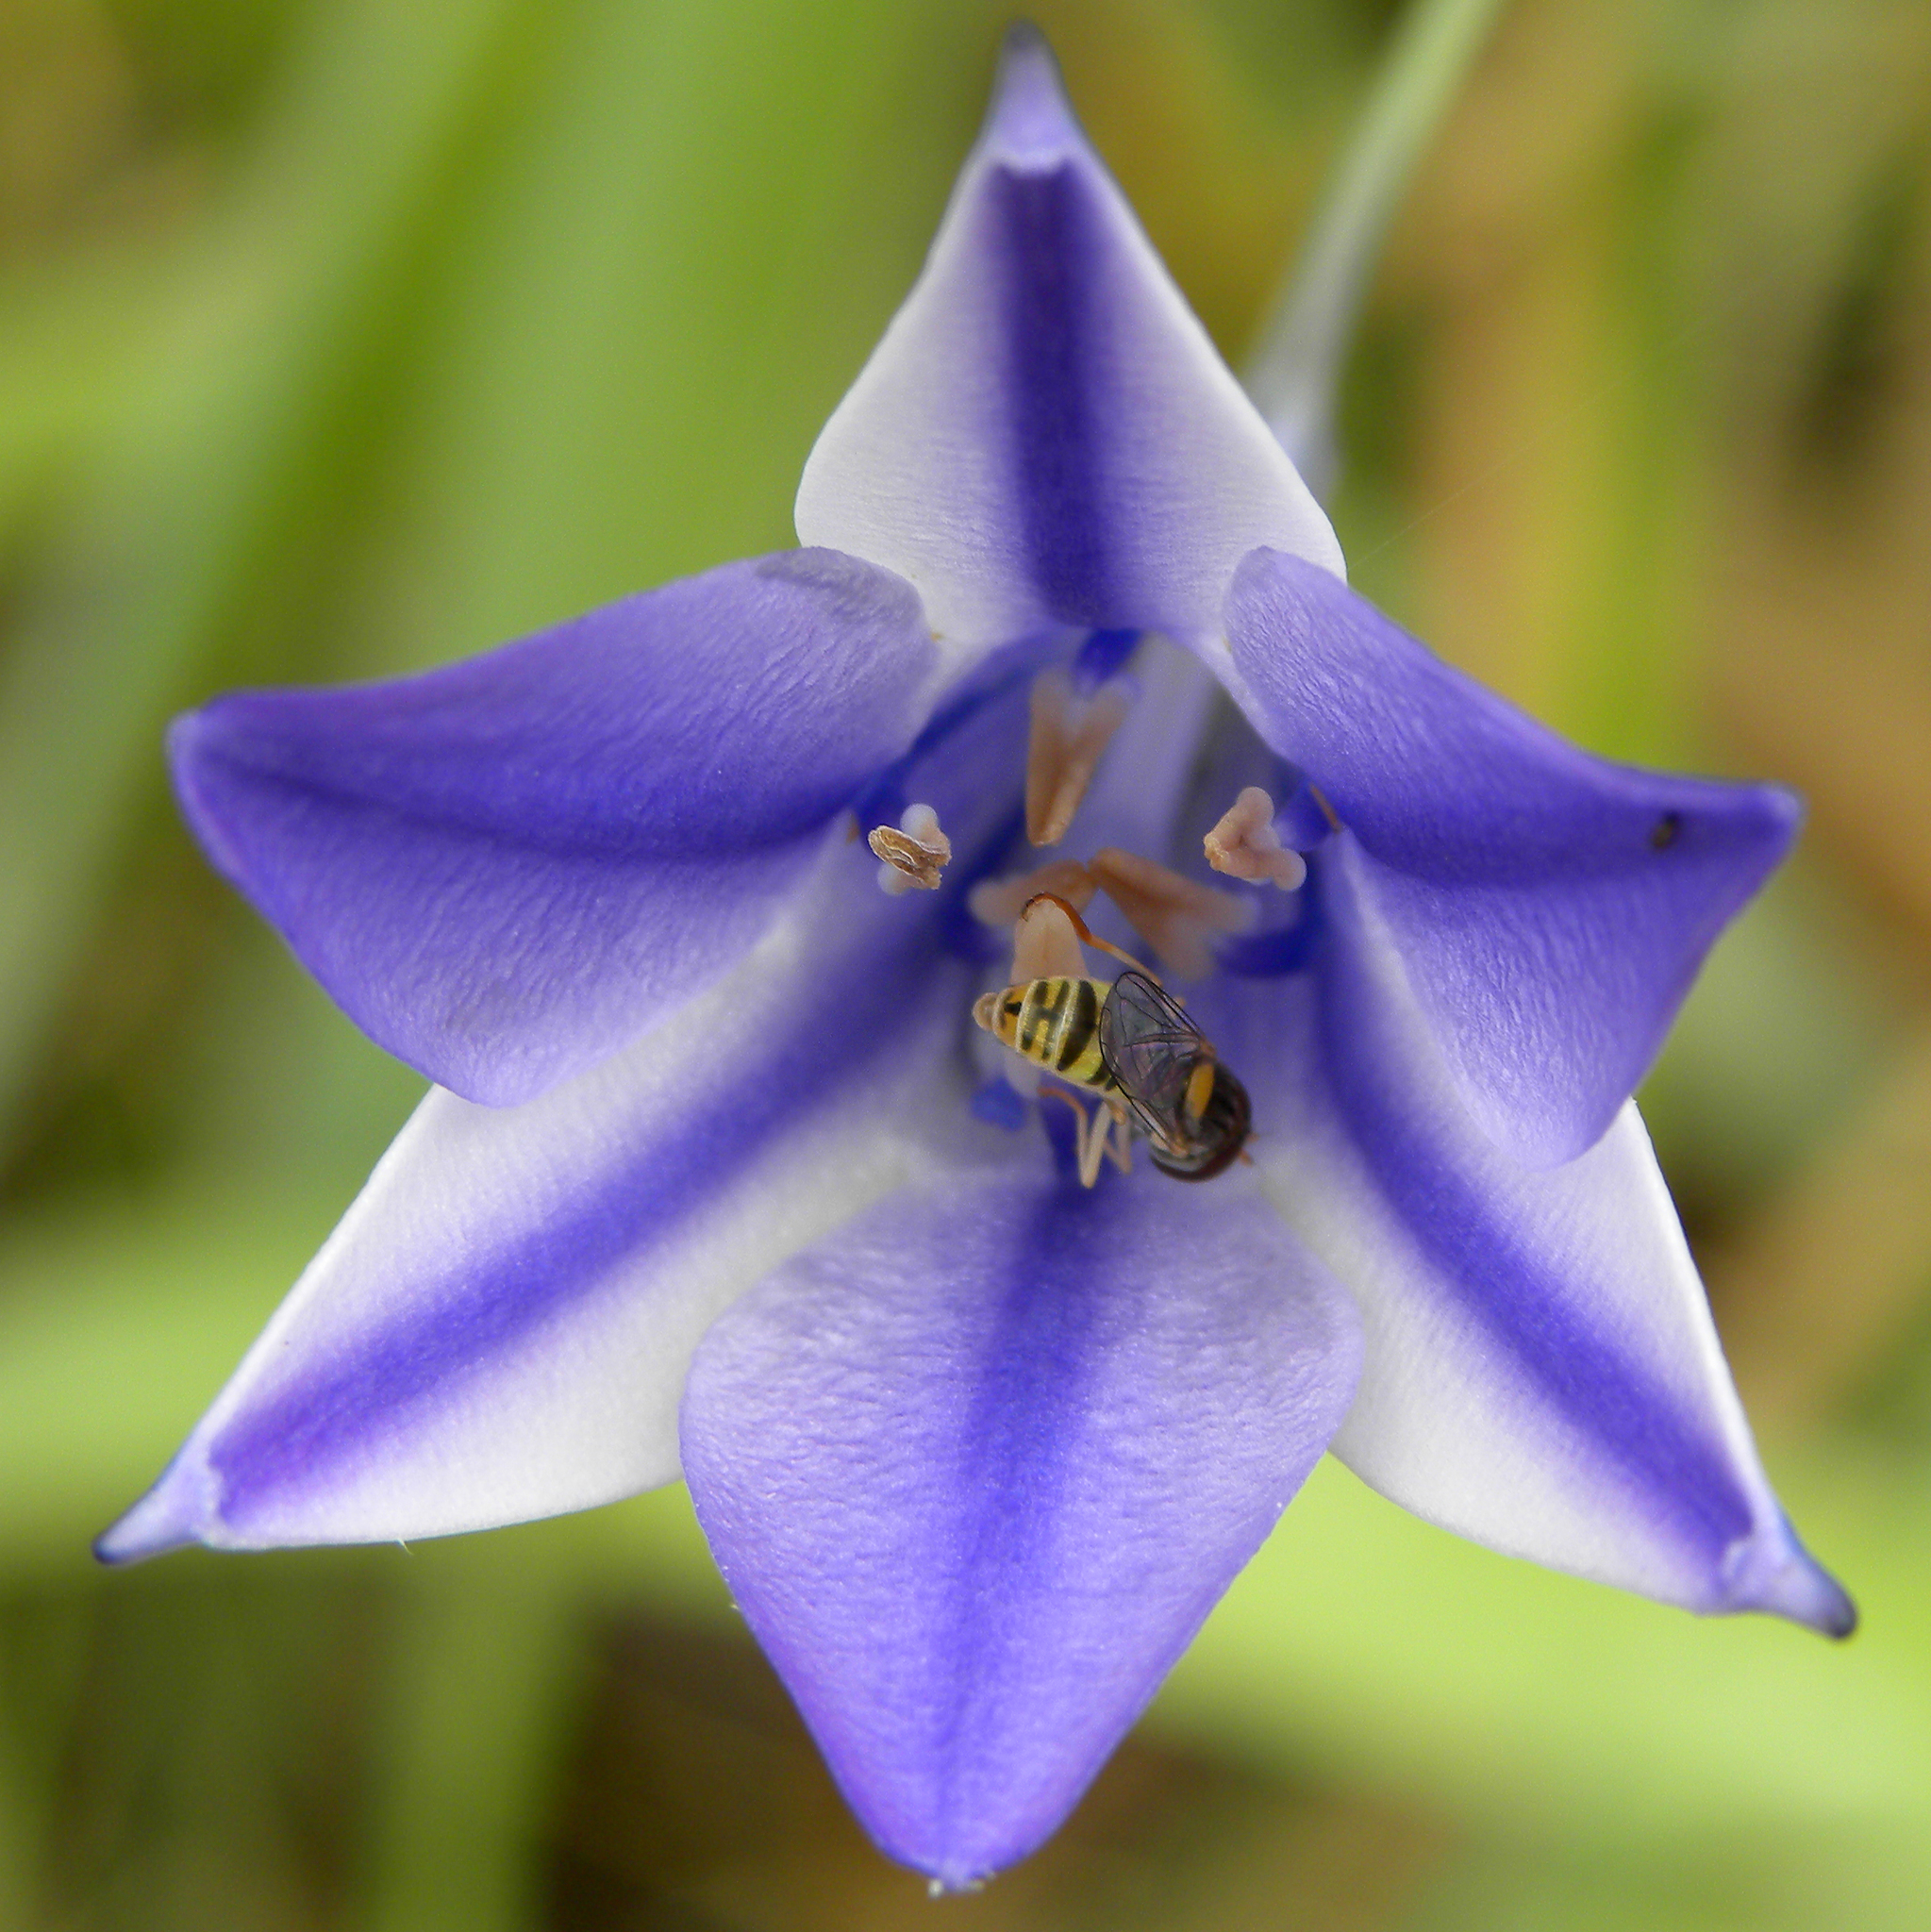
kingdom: Animalia
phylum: Arthropoda
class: Insecta
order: Diptera
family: Syrphidae
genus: Sphaerophoria
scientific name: Sphaerophoria contigua
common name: Tufted globetail
